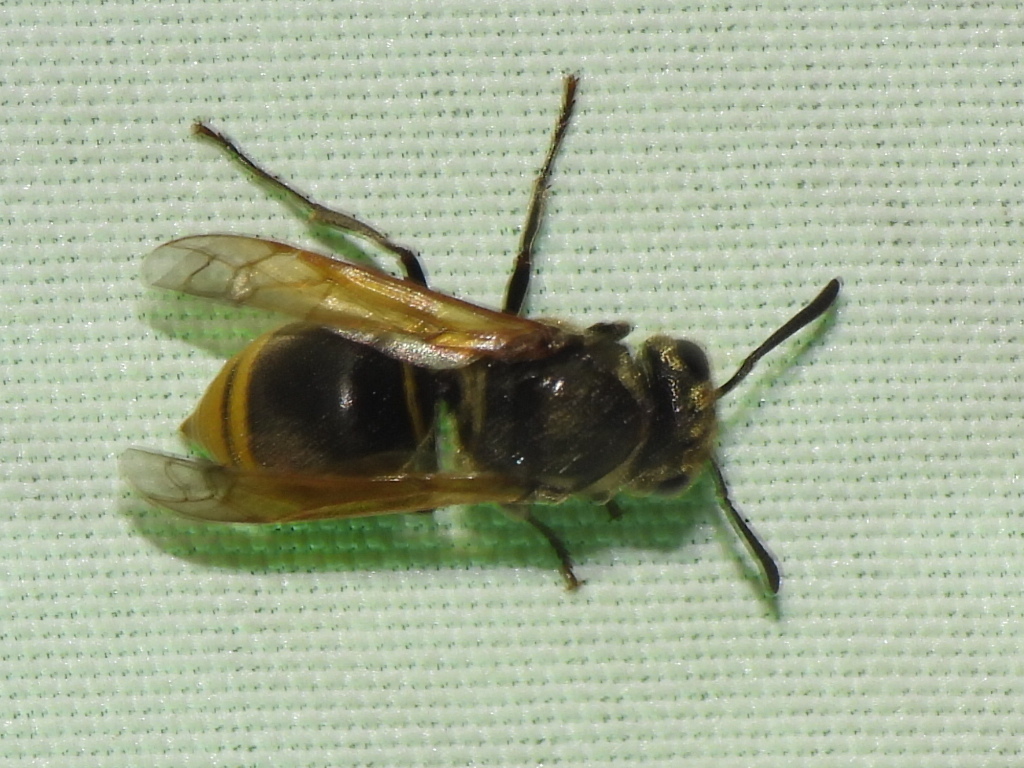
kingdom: Animalia
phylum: Arthropoda
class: Insecta
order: Hymenoptera
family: Vespidae
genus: Brachygastra
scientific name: Brachygastra mellifica
